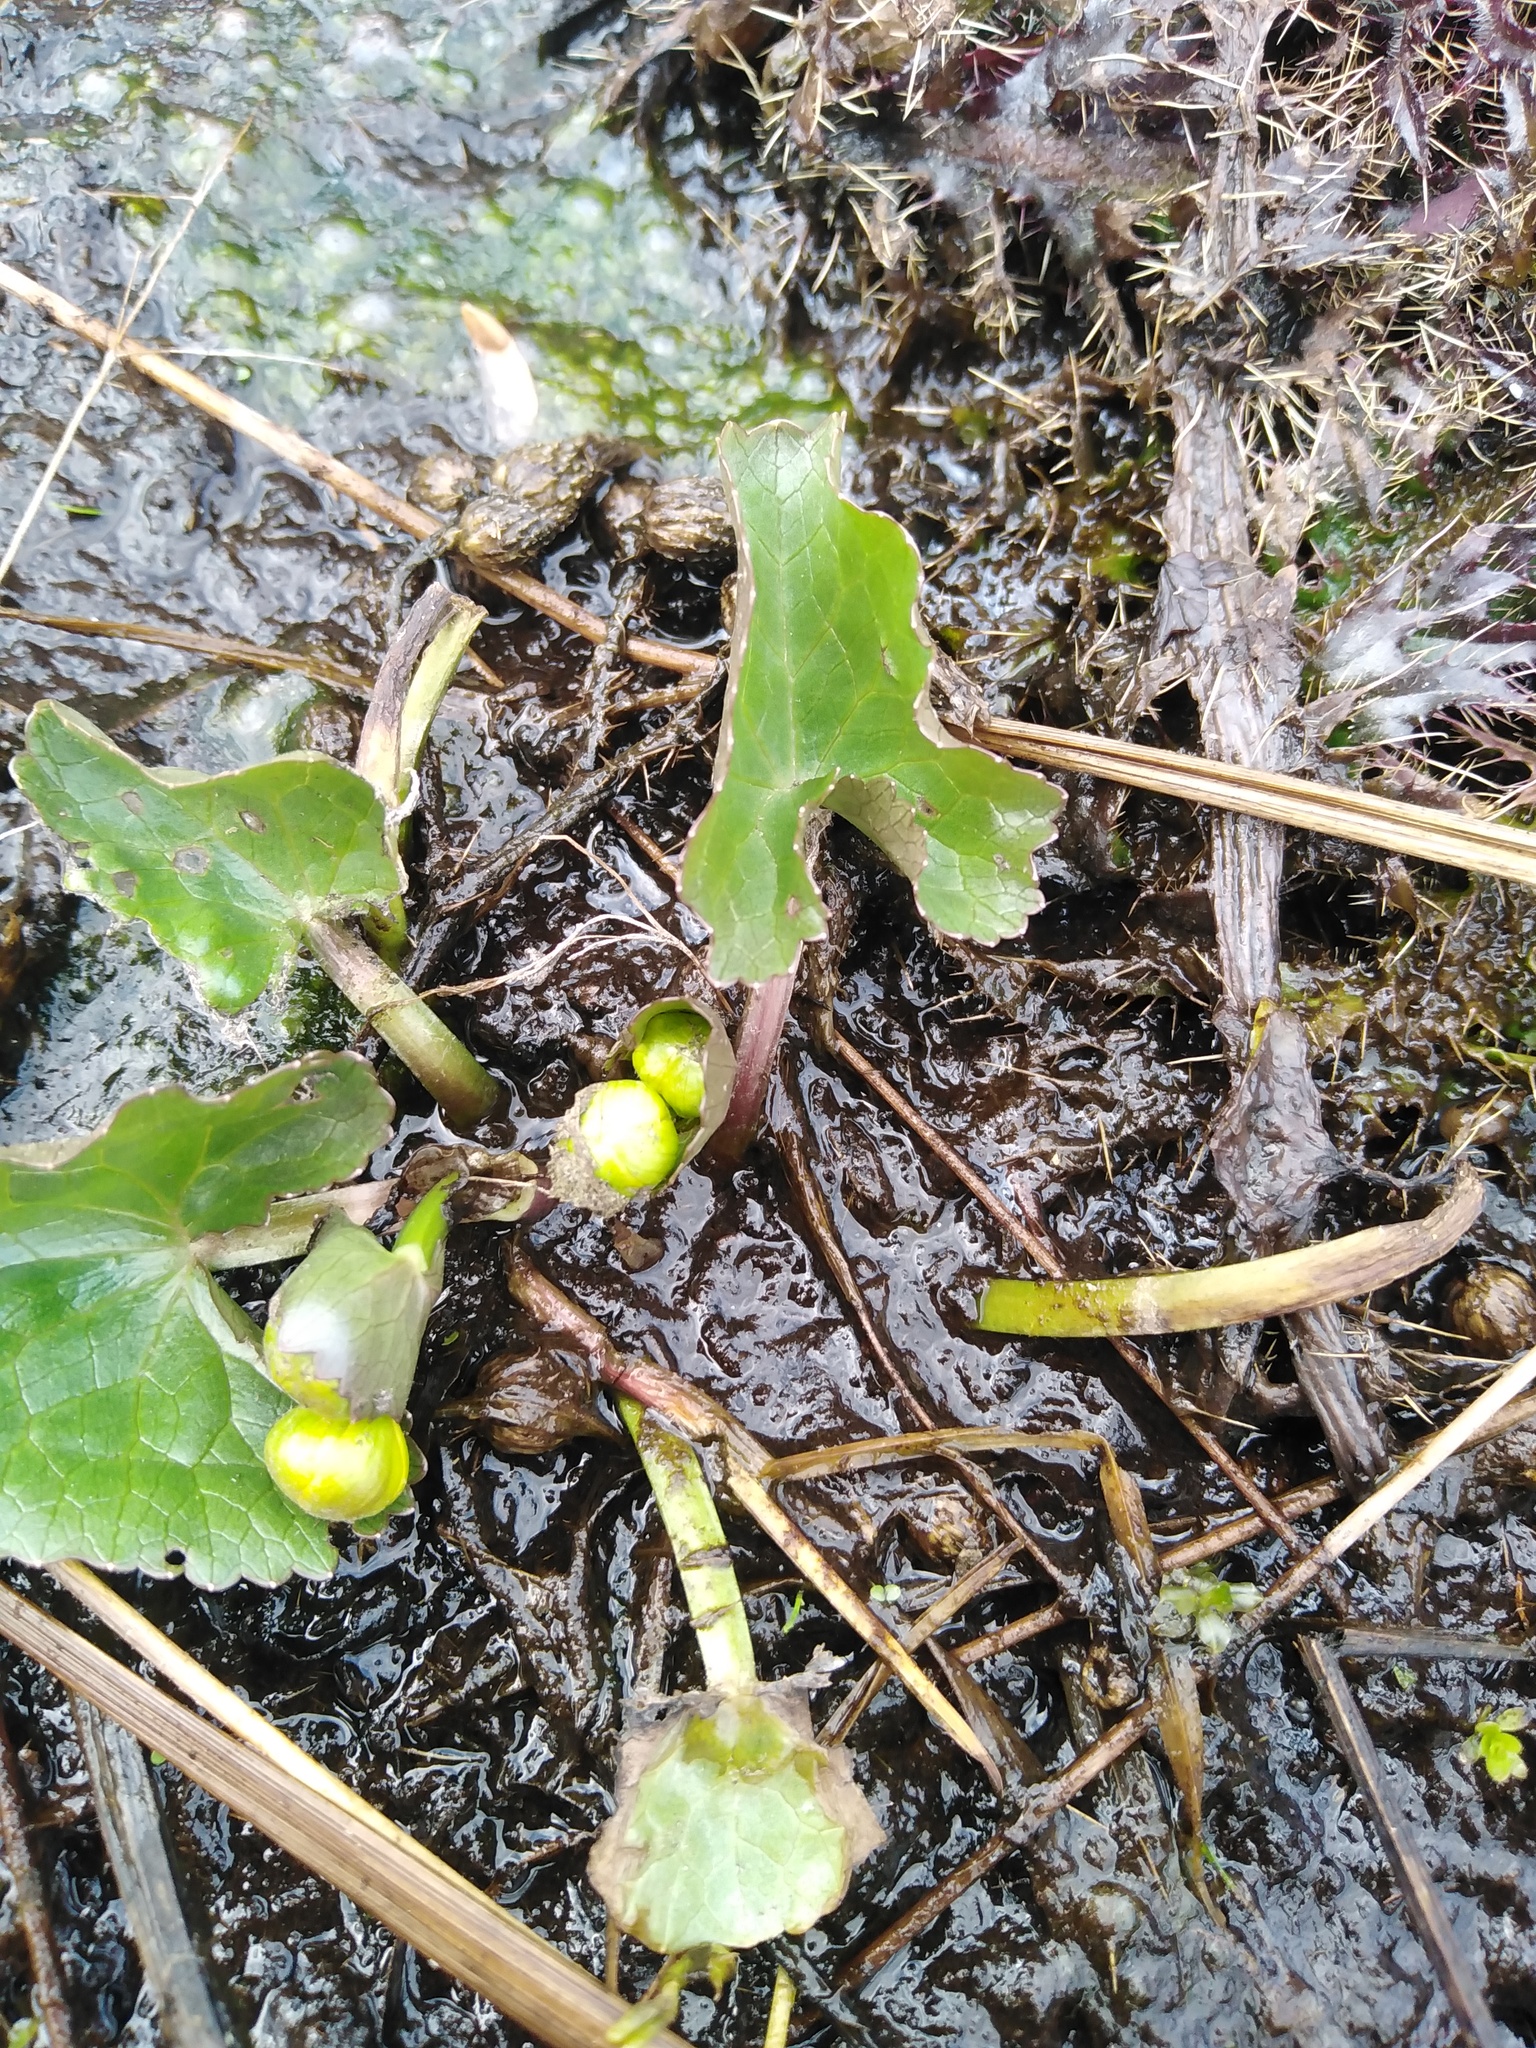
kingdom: Plantae
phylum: Tracheophyta
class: Magnoliopsida
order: Ranunculales
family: Ranunculaceae
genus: Caltha
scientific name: Caltha palustris
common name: Marsh marigold
